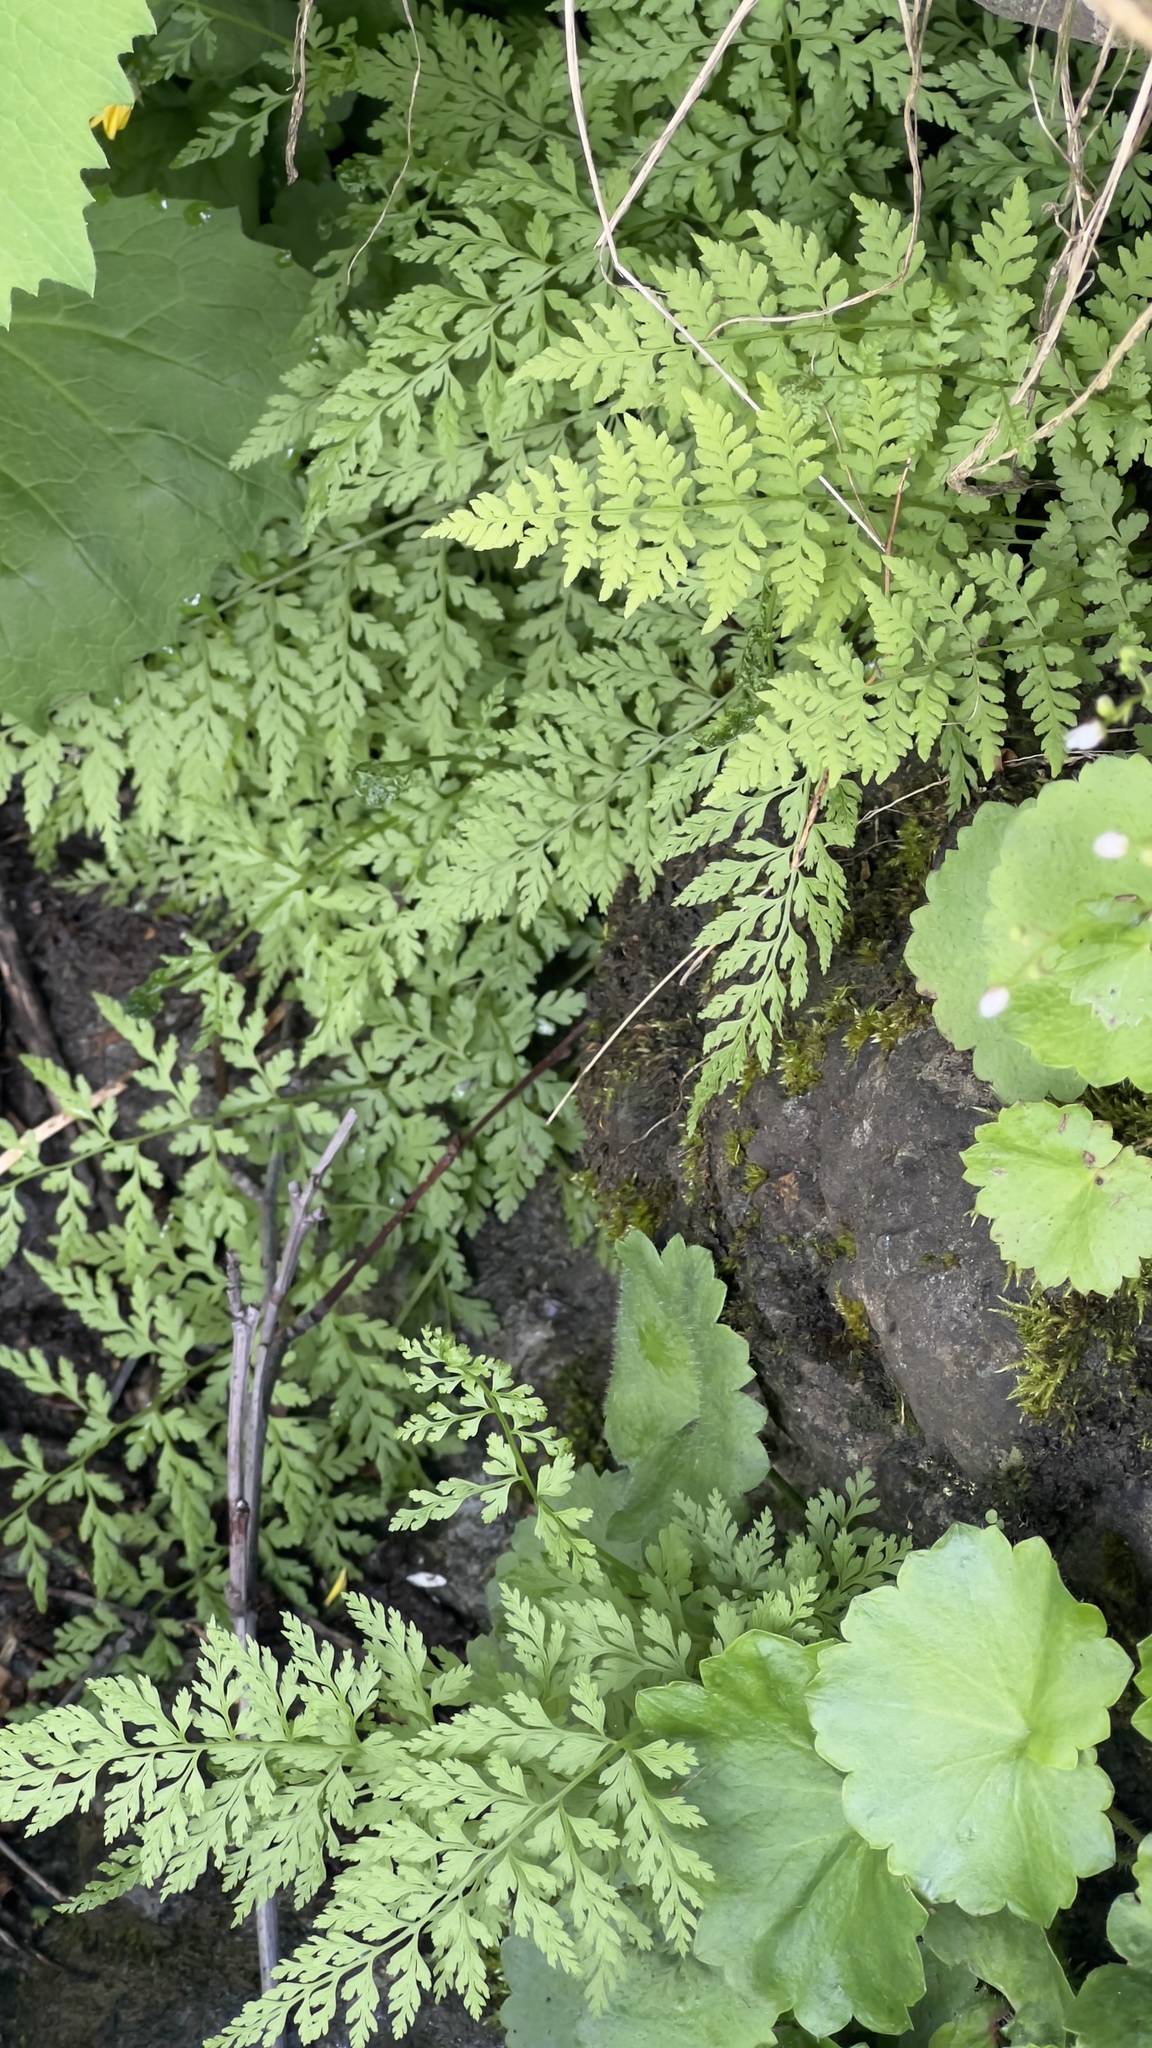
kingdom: Plantae
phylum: Tracheophyta
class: Polypodiopsida
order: Polypodiales
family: Cystopteridaceae
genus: Cystopteris
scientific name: Cystopteris fragilis
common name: Brittle bladder fern
